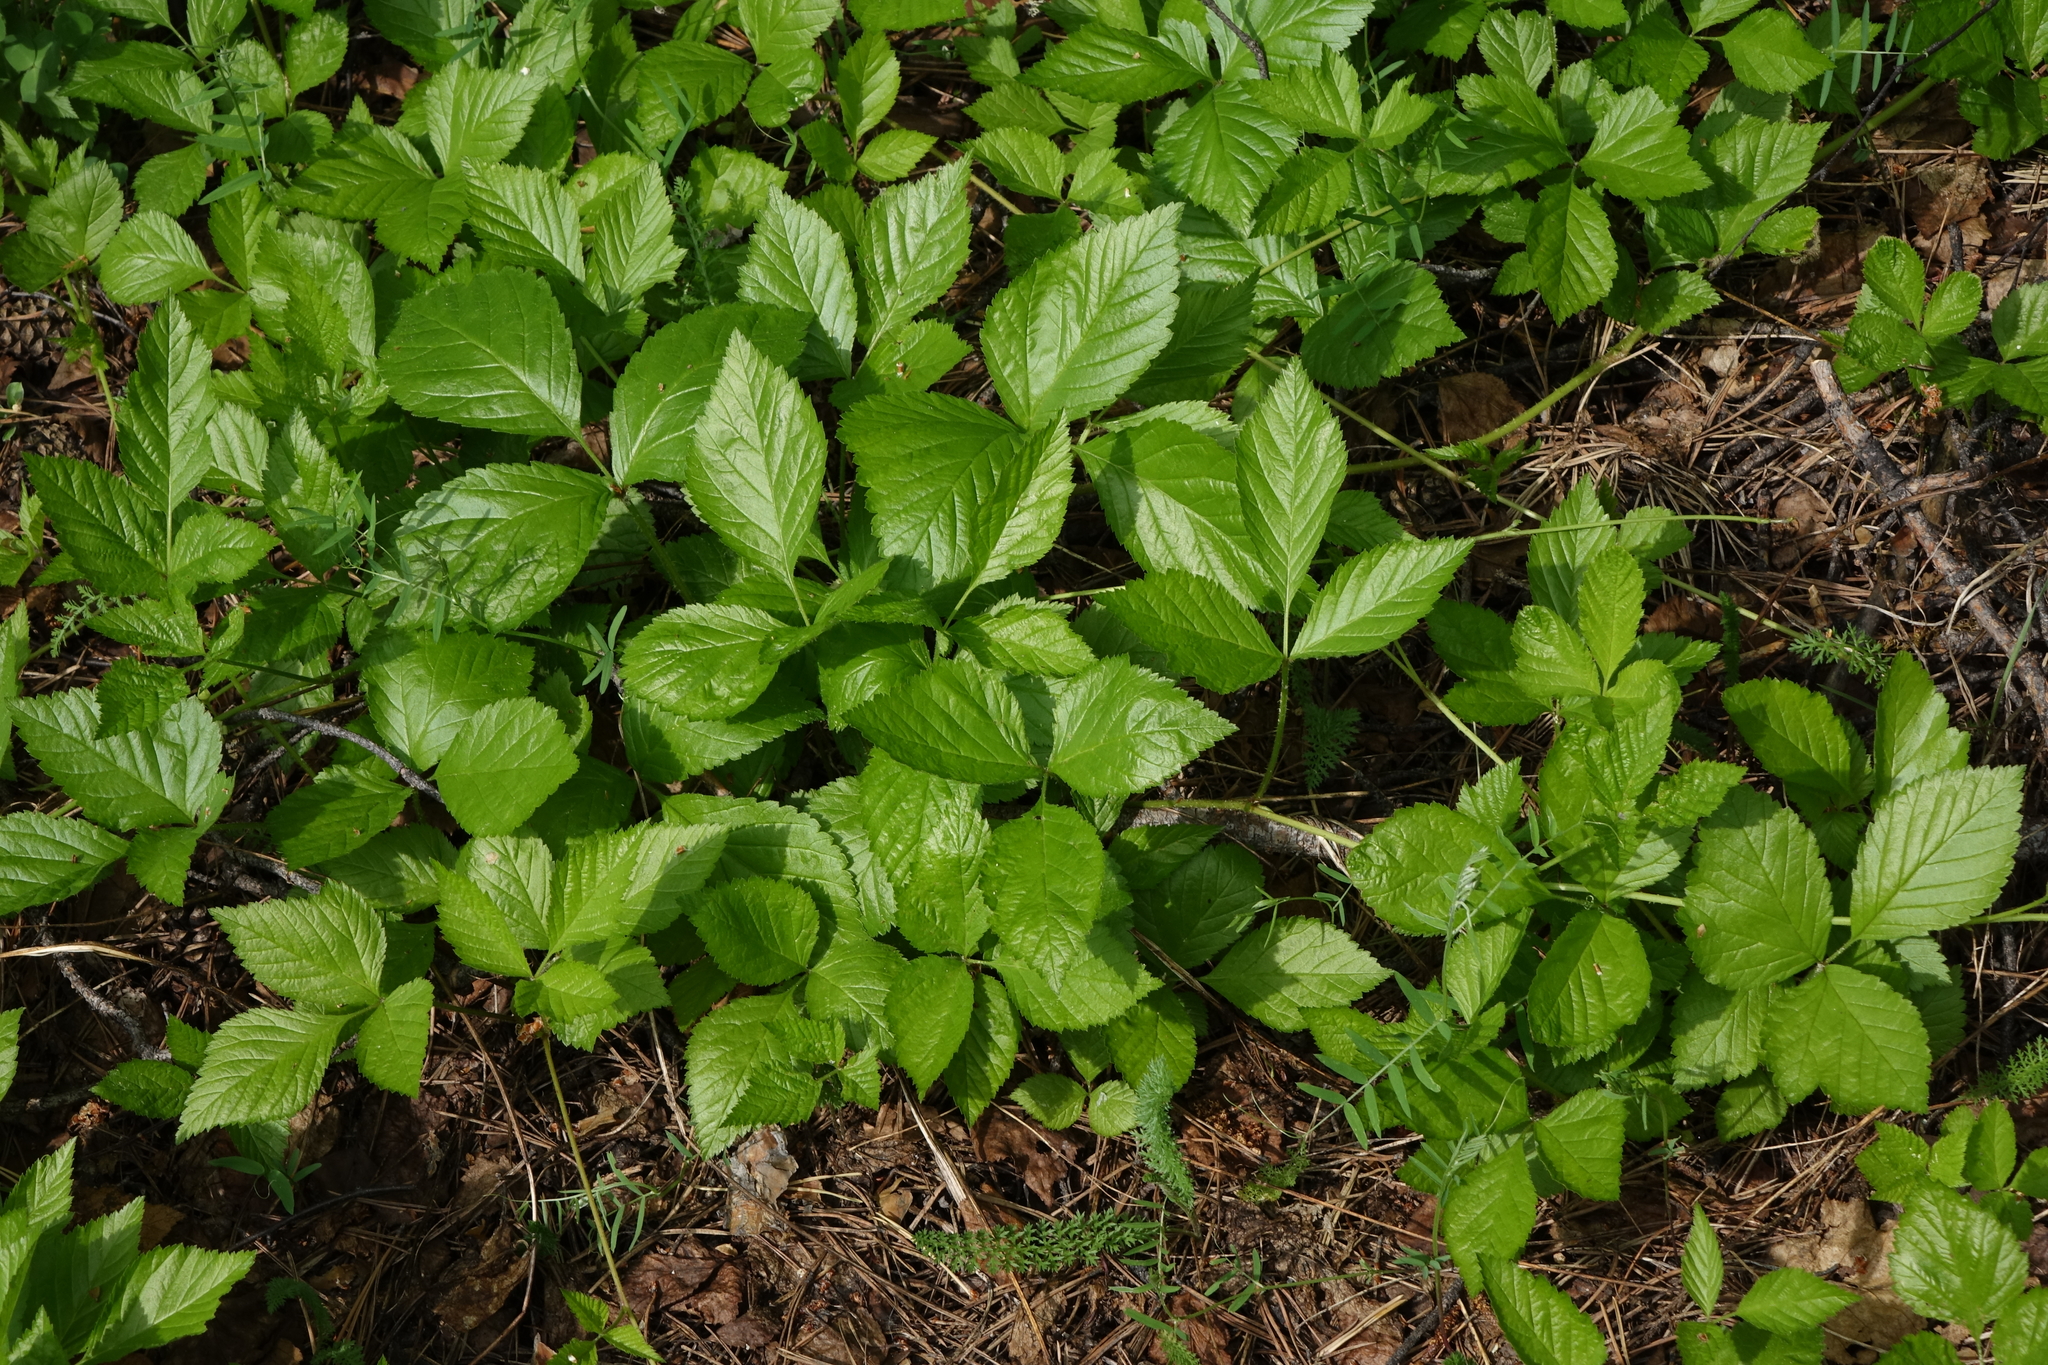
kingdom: Plantae
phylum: Tracheophyta
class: Magnoliopsida
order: Rosales
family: Rosaceae
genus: Rubus
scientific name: Rubus saxatilis
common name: Stone bramble
